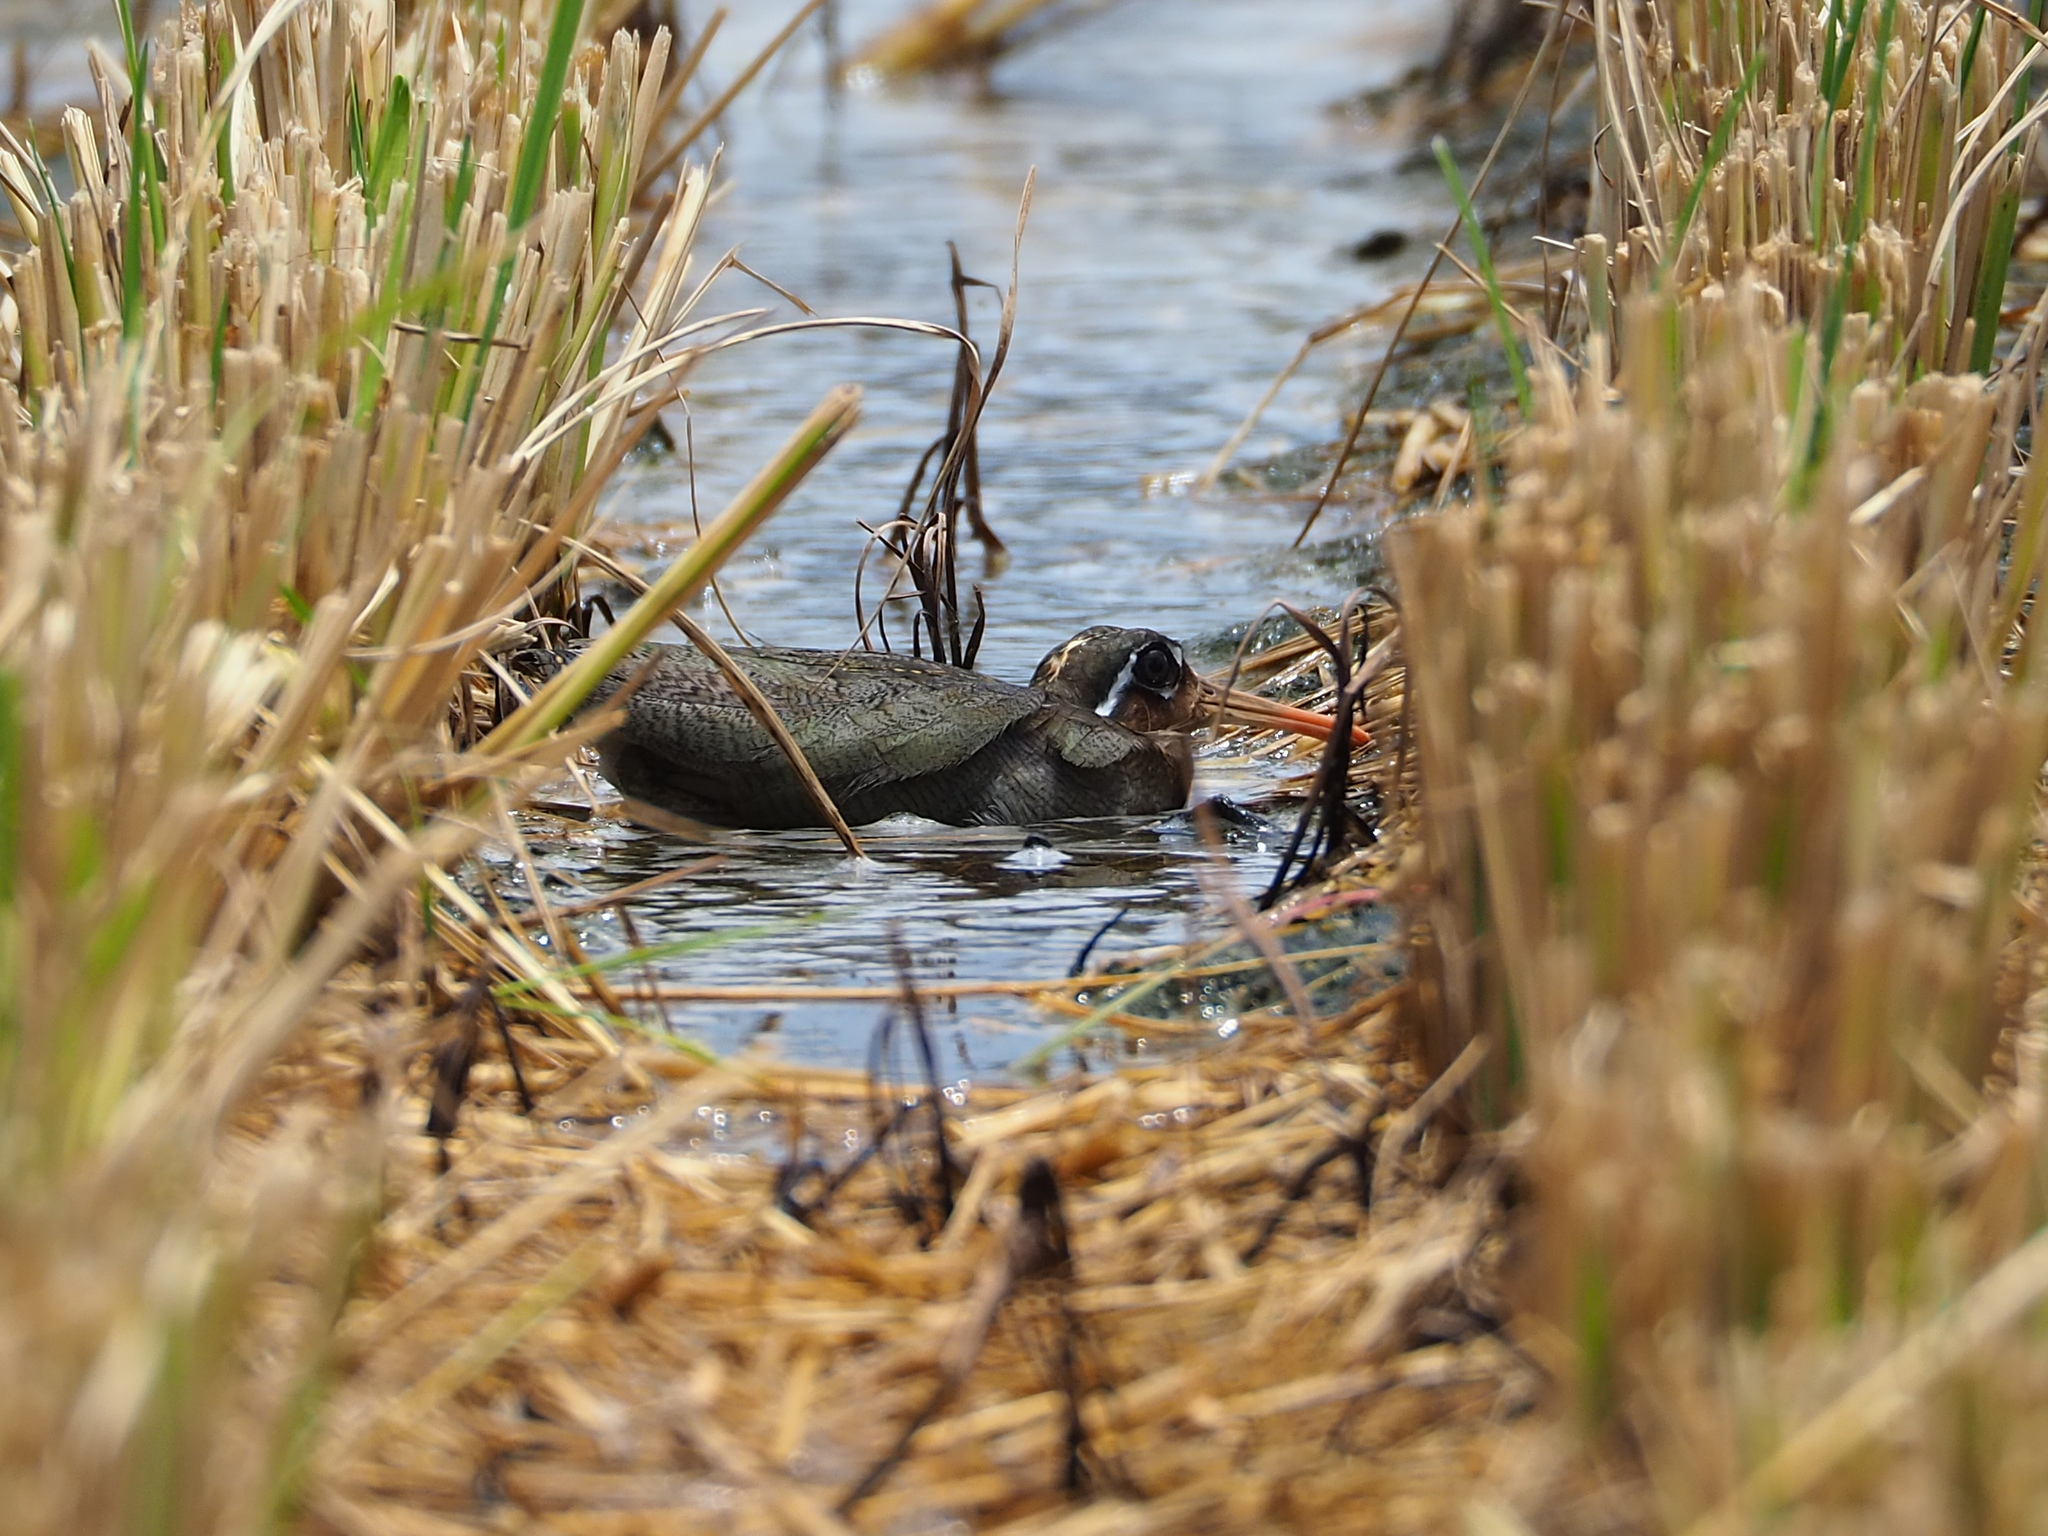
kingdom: Animalia
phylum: Chordata
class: Aves
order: Charadriiformes
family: Rostratulidae
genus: Rostratula
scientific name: Rostratula benghalensis
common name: Greater painted-snipe
